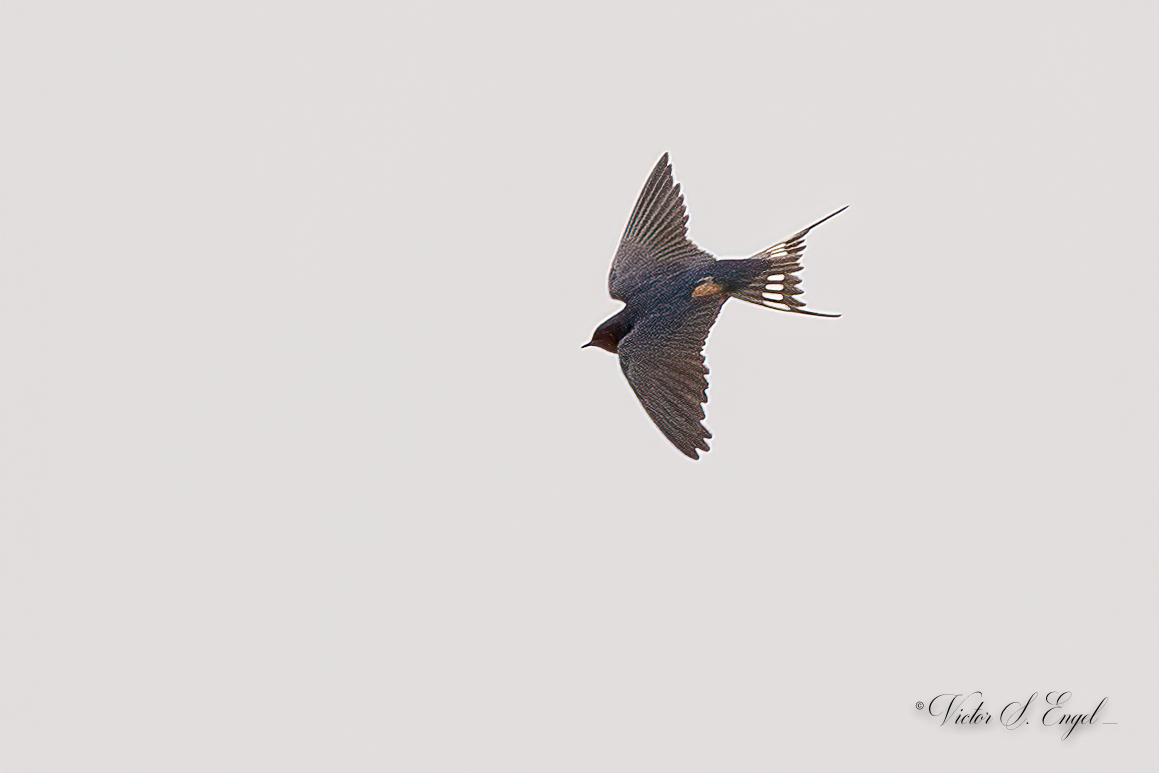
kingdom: Animalia
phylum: Chordata
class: Aves
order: Passeriformes
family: Hirundinidae
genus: Hirundo
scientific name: Hirundo rustica
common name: Barn swallow
